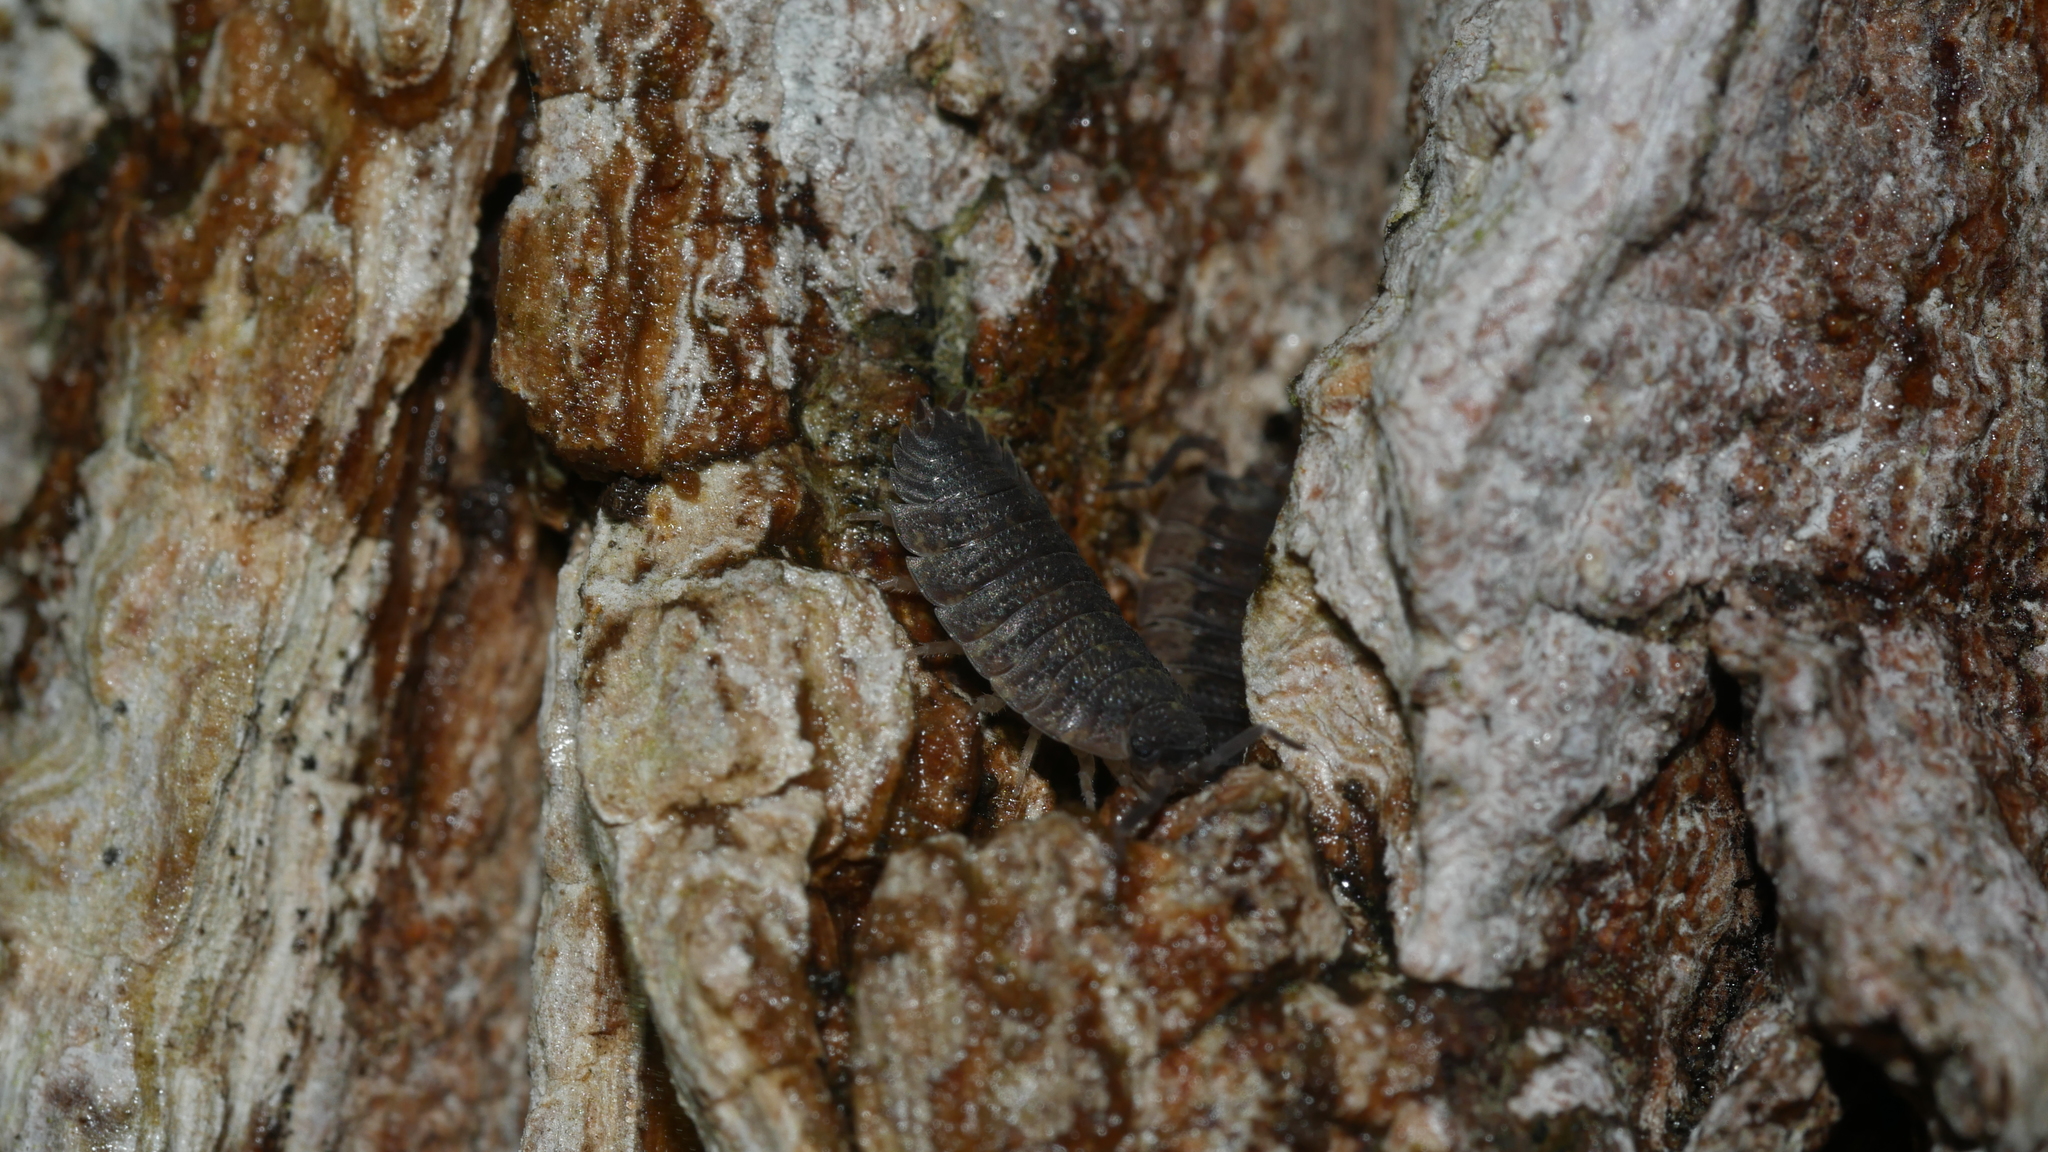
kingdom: Animalia
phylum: Arthropoda
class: Malacostraca
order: Isopoda
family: Porcellionidae
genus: Porcellio
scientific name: Porcellio scaber
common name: Common rough woodlouse
